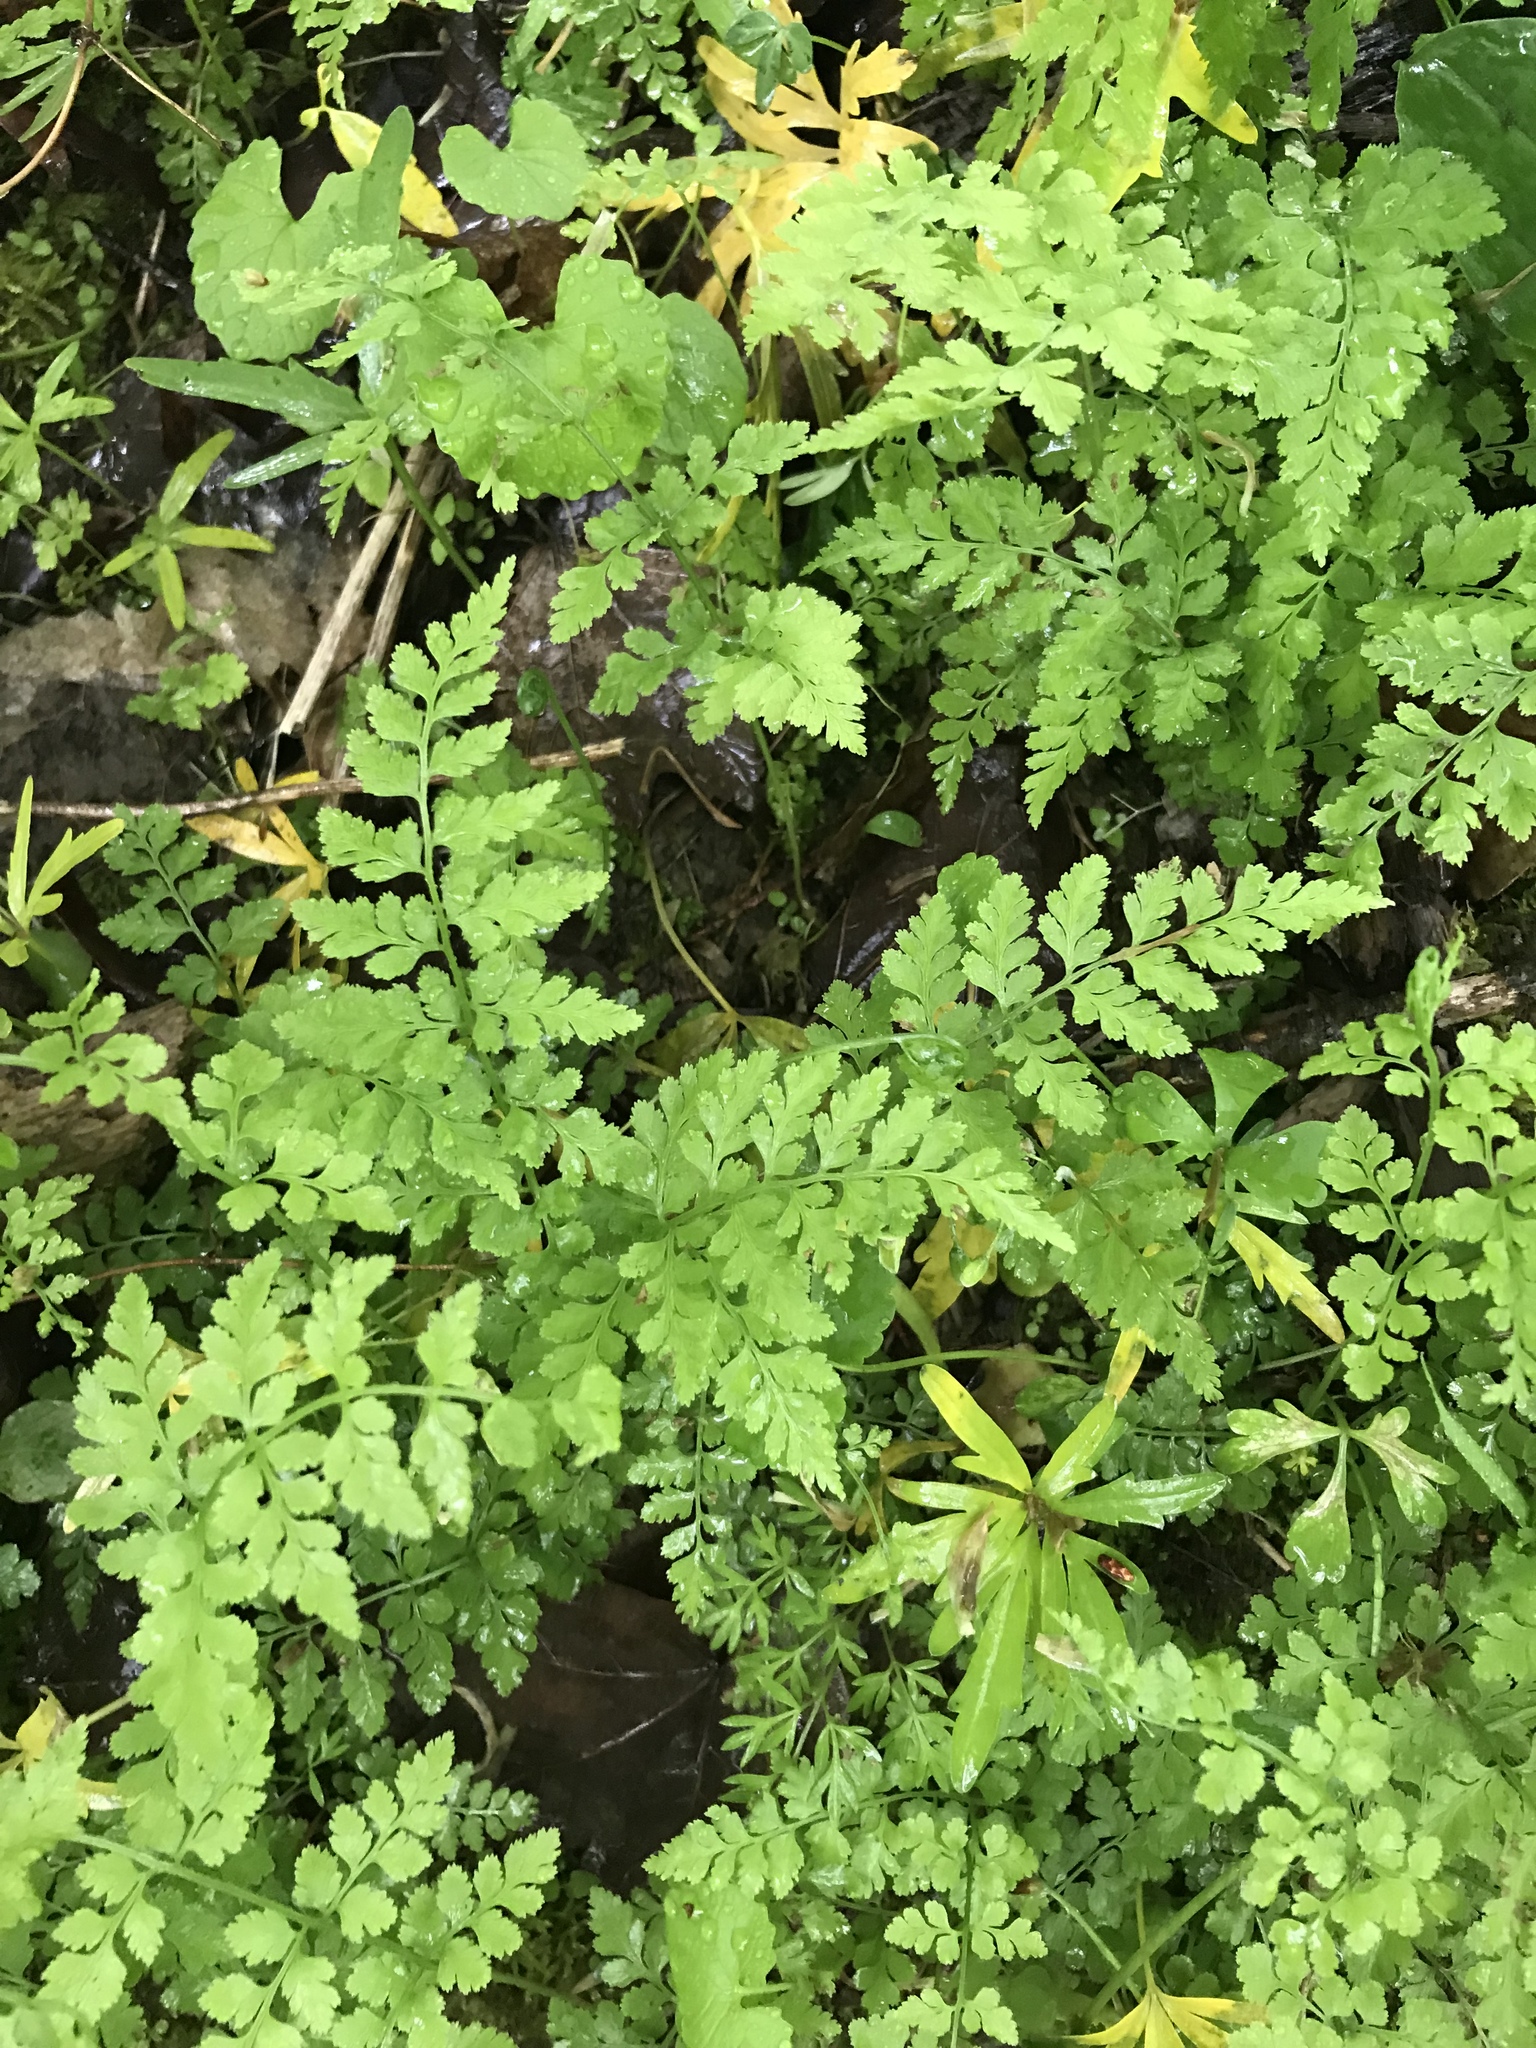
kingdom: Plantae
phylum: Tracheophyta
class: Polypodiopsida
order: Polypodiales
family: Cystopteridaceae
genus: Cystopteris
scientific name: Cystopteris protrusa
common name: Lowland brittle fern
